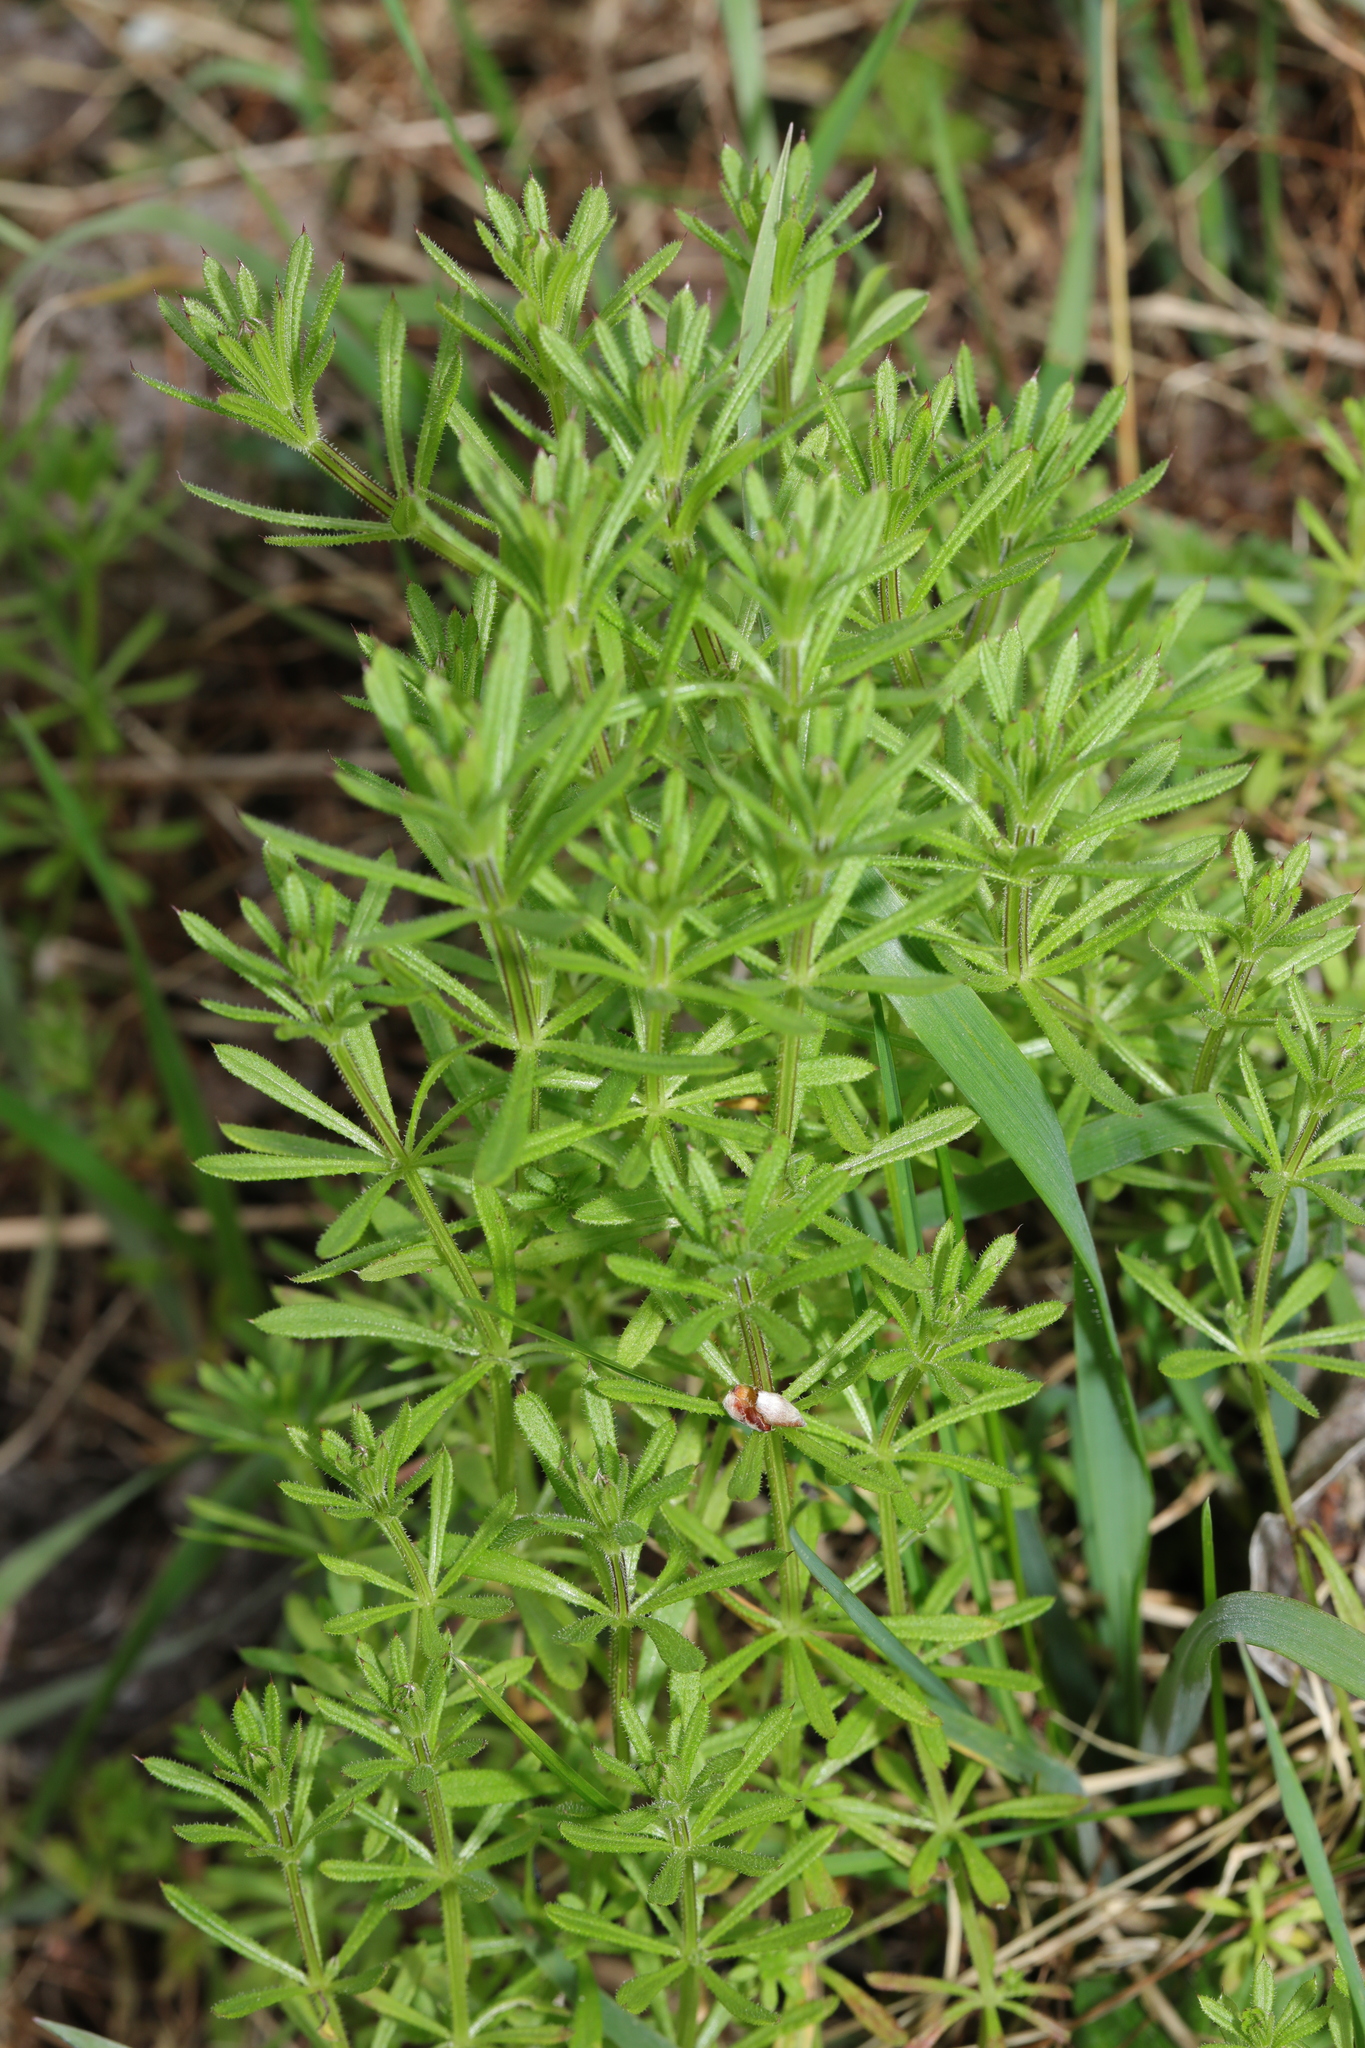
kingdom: Plantae
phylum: Tracheophyta
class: Magnoliopsida
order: Gentianales
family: Rubiaceae
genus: Galium
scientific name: Galium aparine
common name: Cleavers
